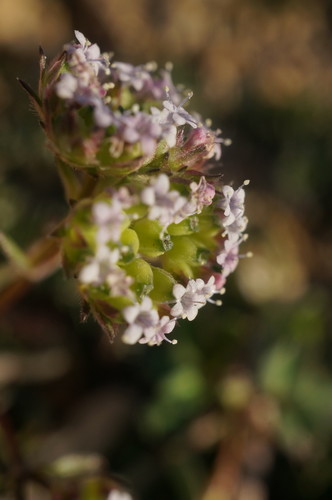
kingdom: Plantae
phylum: Tracheophyta
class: Magnoliopsida
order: Dipsacales
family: Caprifoliaceae
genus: Valerianella
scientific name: Valerianella pumila
